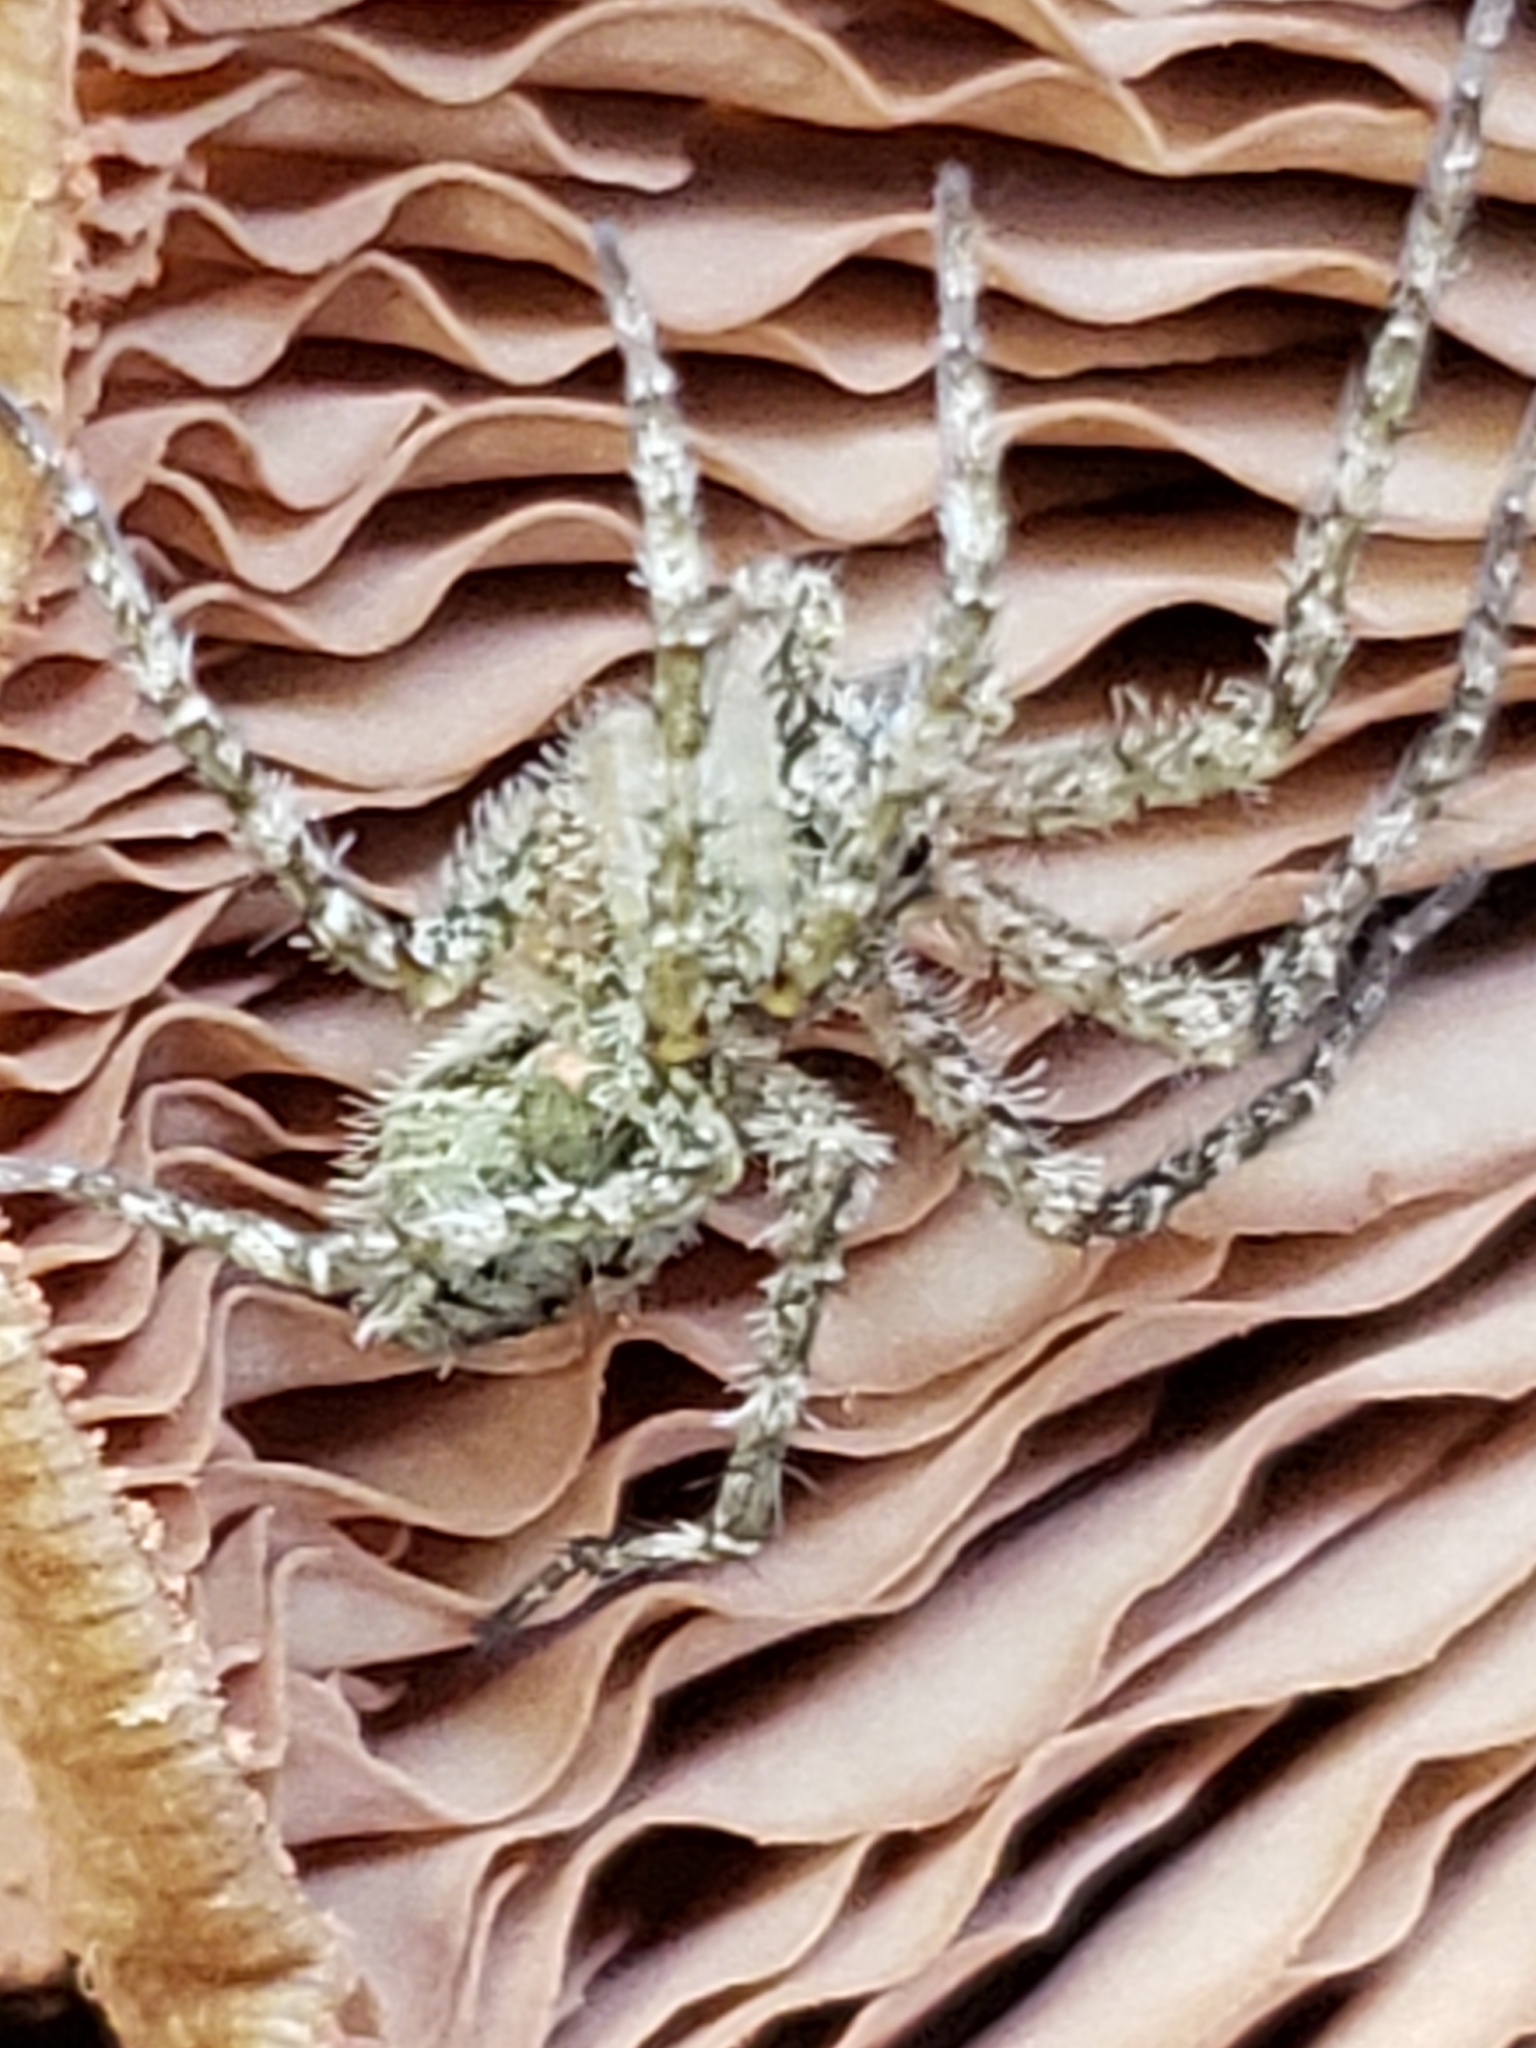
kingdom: Animalia
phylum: Arthropoda
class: Arachnida
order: Araneae
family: Pisauridae
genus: Dolomedes
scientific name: Dolomedes albineus
